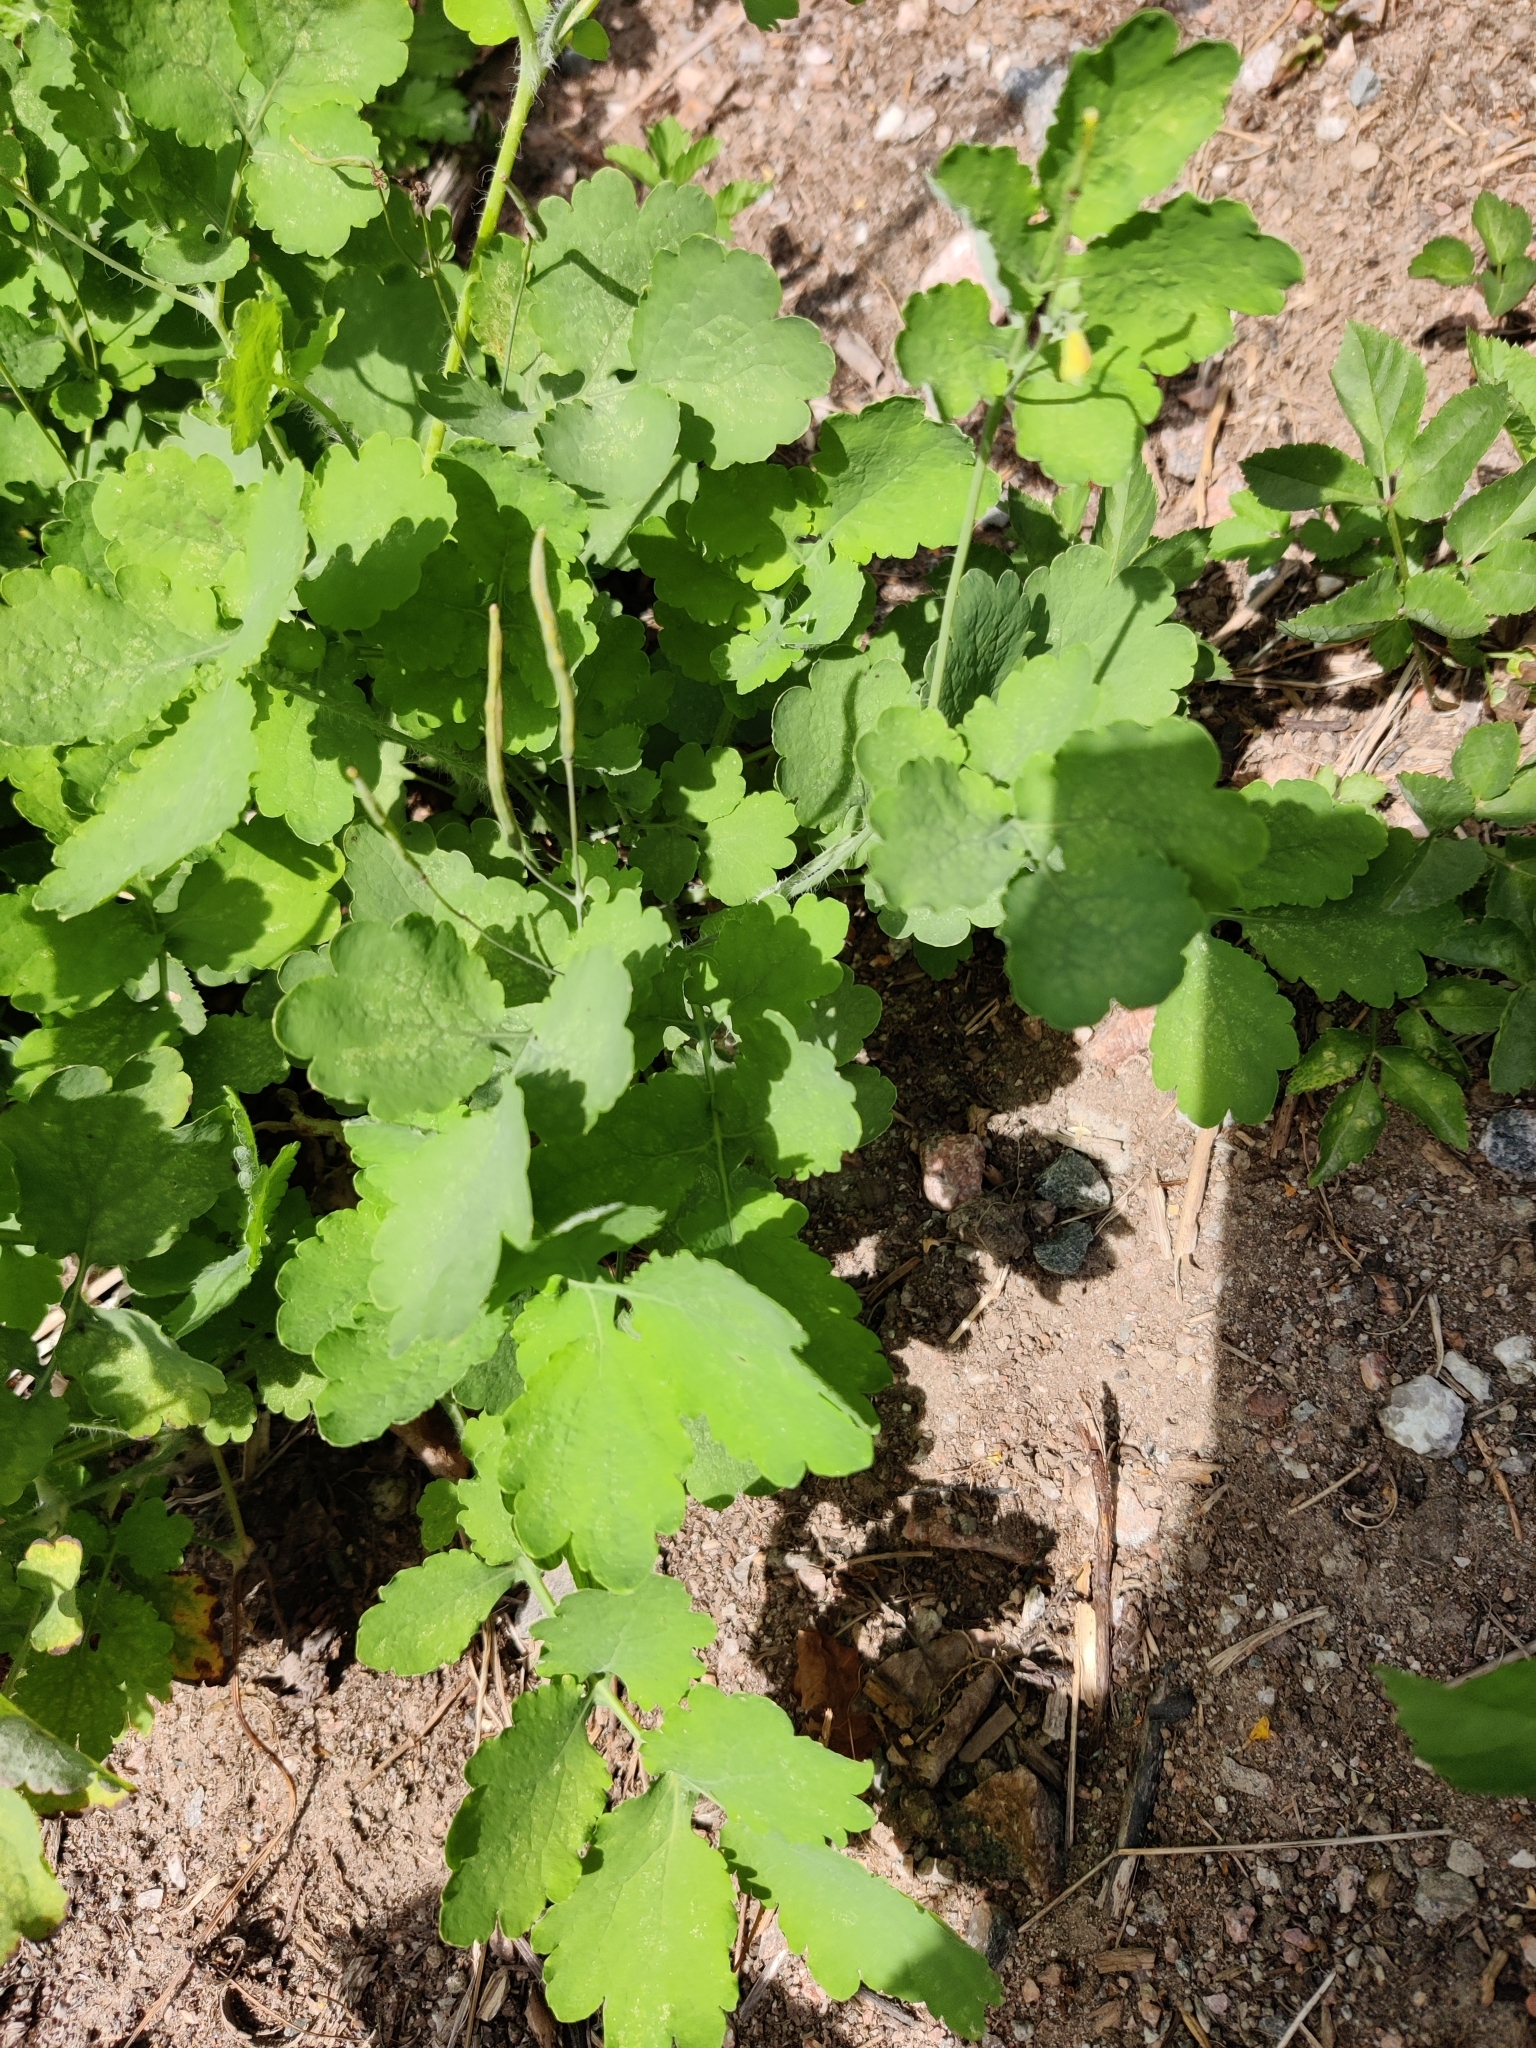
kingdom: Plantae
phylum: Tracheophyta
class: Magnoliopsida
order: Ranunculales
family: Papaveraceae
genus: Chelidonium
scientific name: Chelidonium majus
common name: Greater celandine
